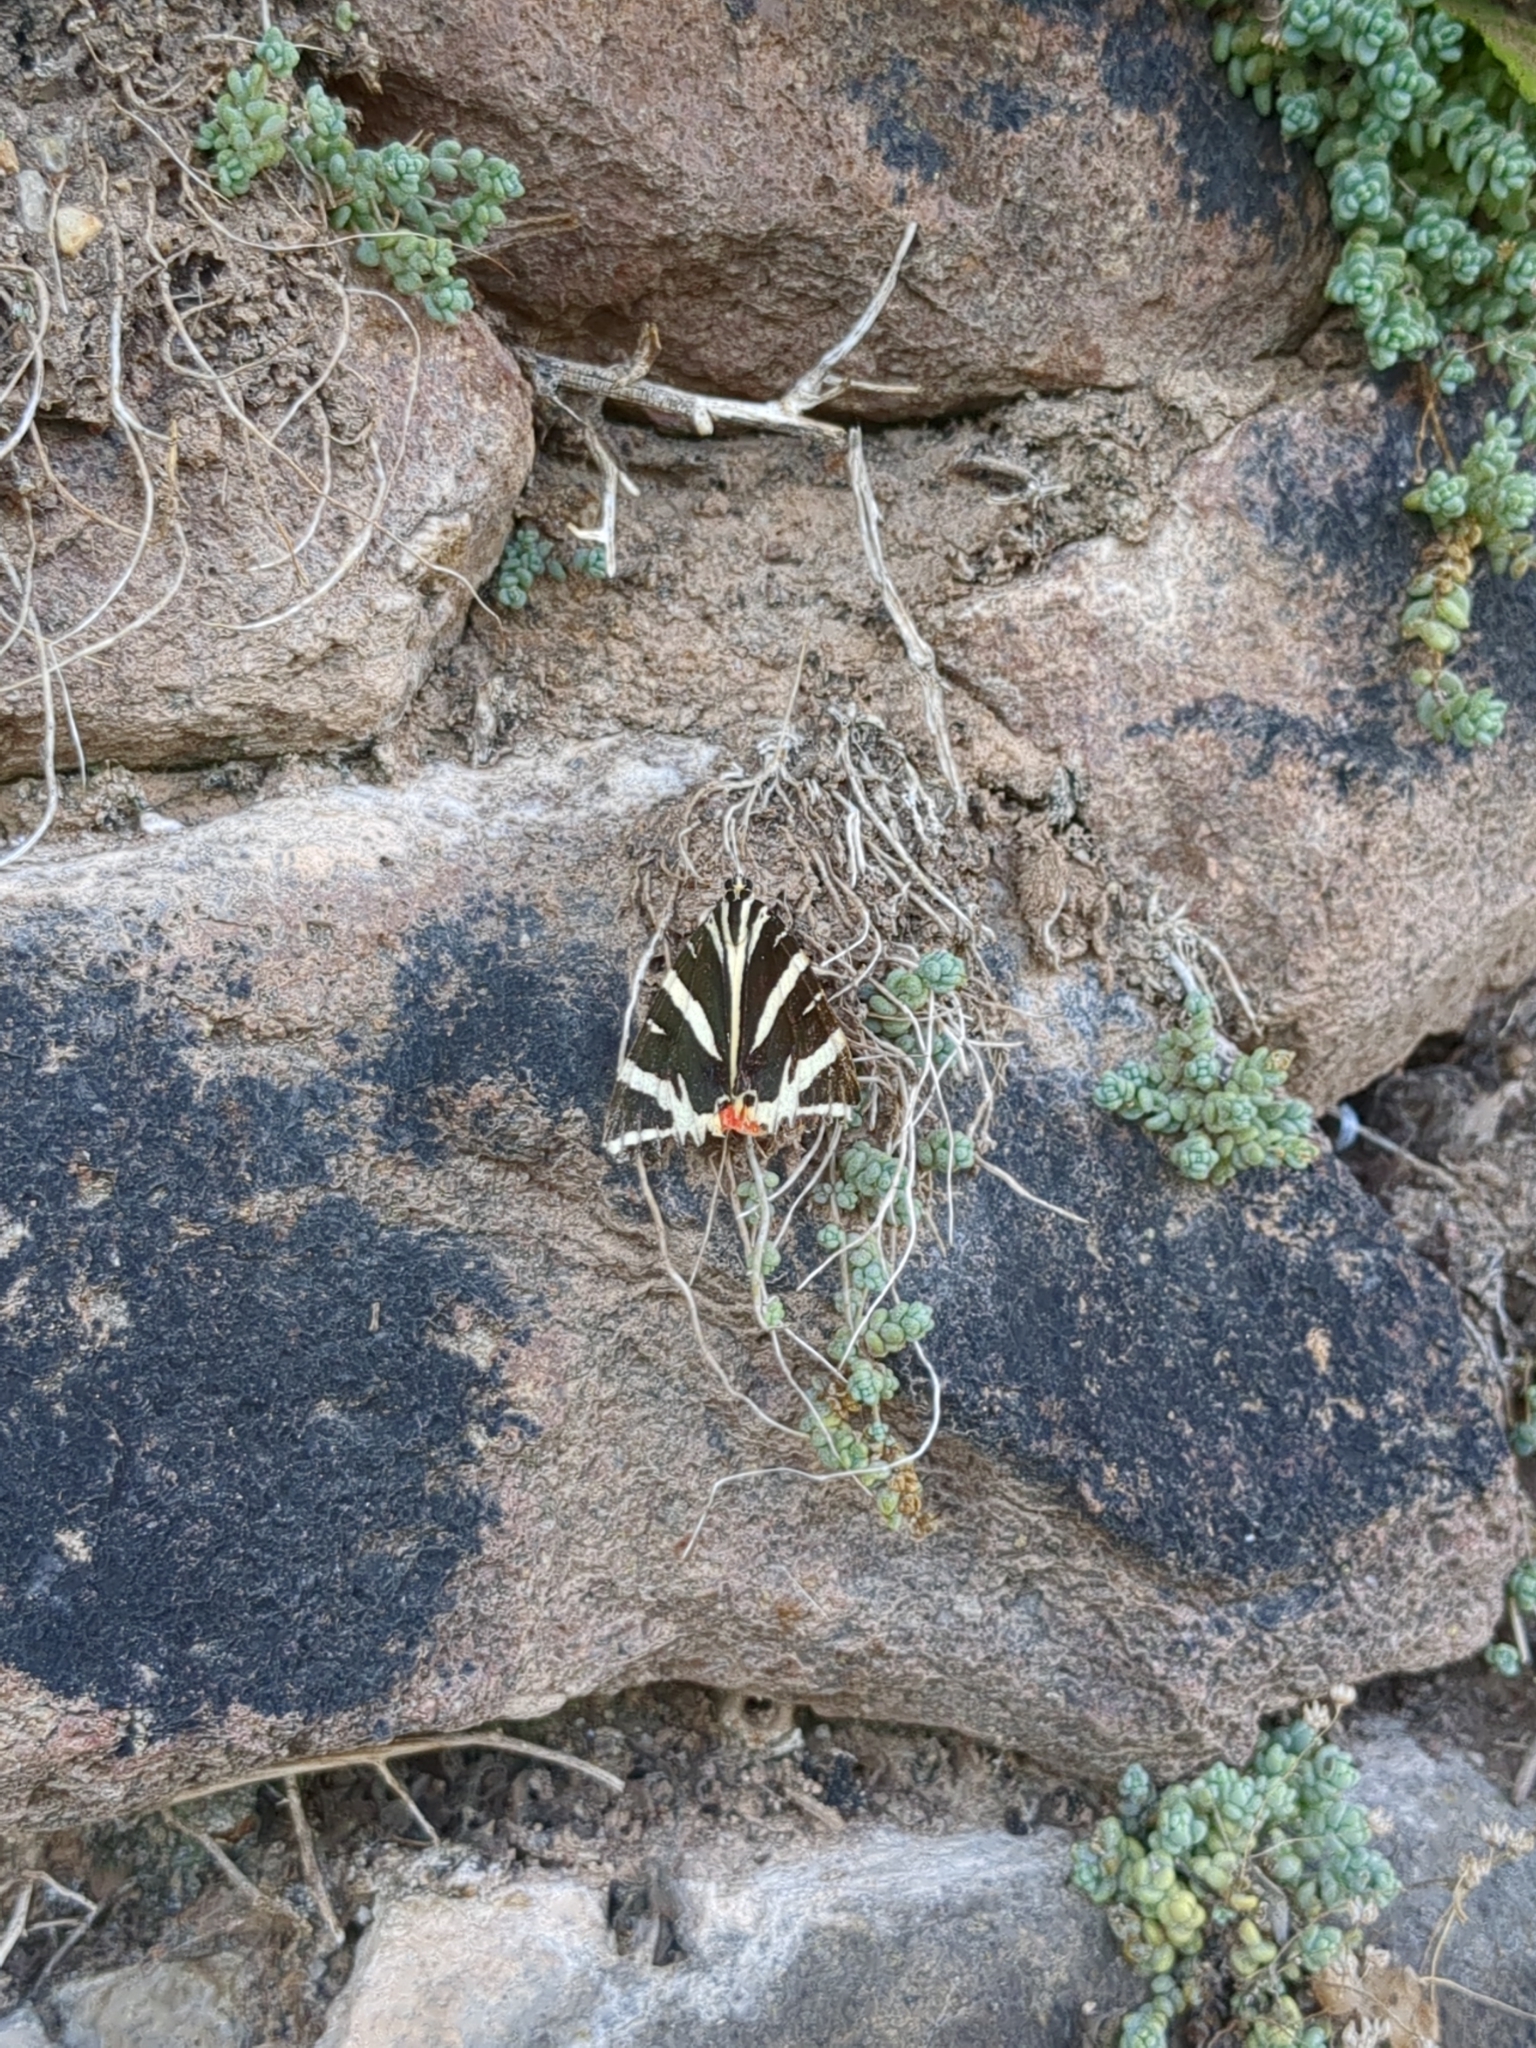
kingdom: Animalia
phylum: Arthropoda
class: Insecta
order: Lepidoptera
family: Erebidae
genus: Euplagia
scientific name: Euplagia quadripunctaria
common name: Jersey tiger
